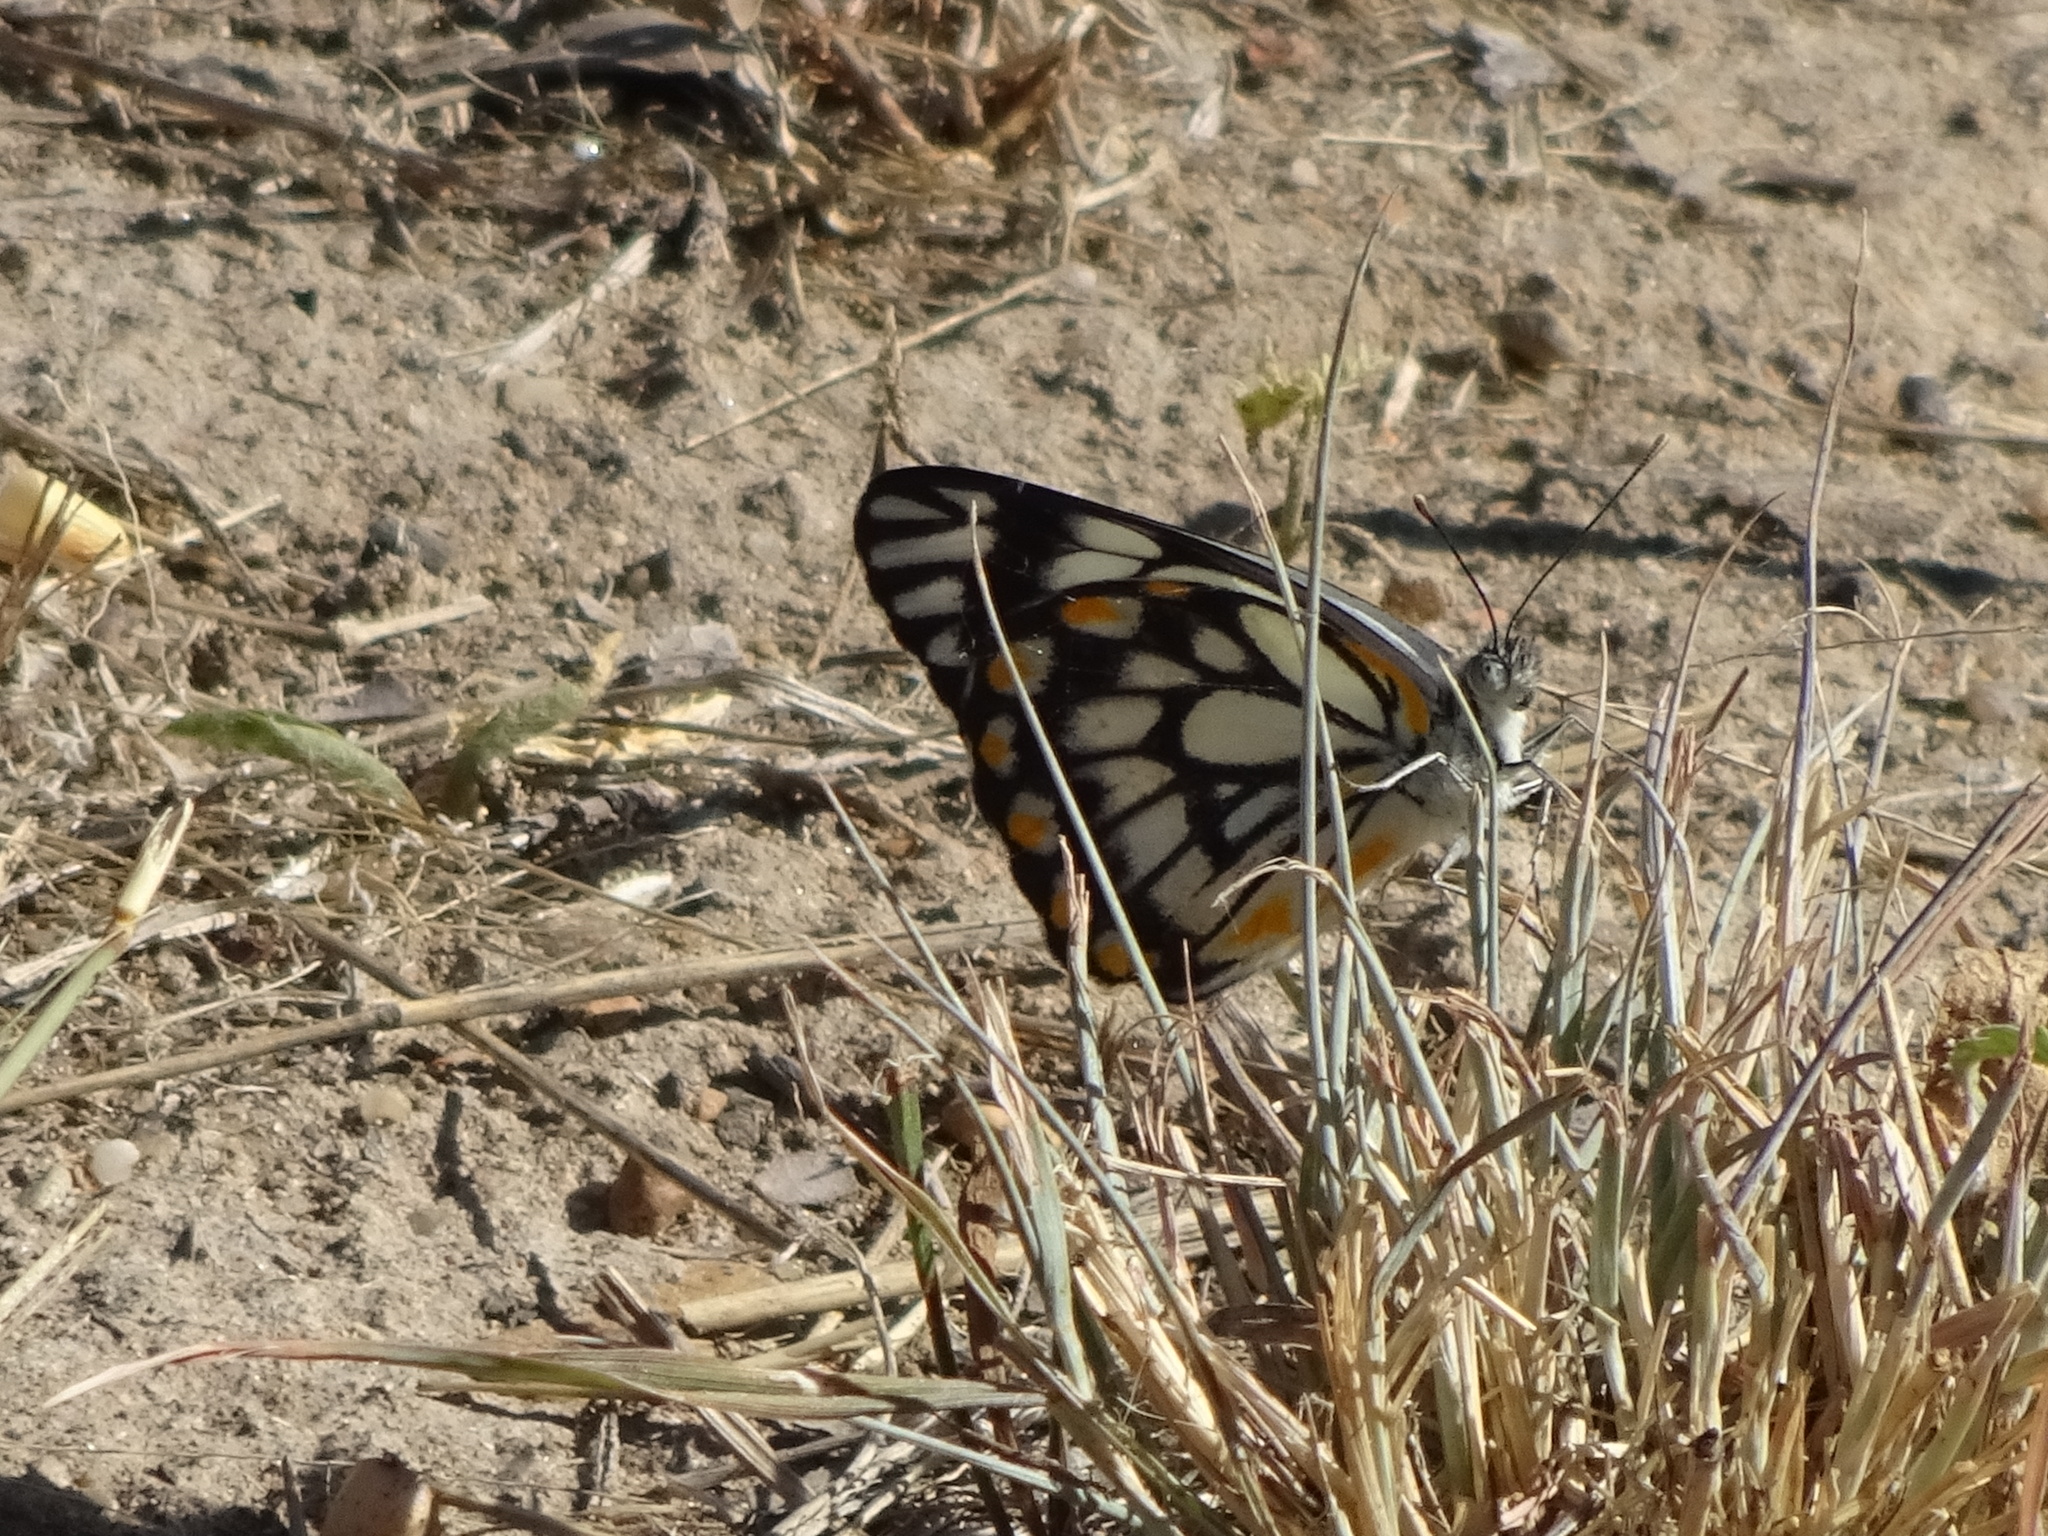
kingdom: Animalia
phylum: Arthropoda
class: Insecta
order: Lepidoptera
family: Pieridae
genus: Belenois
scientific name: Belenois java
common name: Caper white
